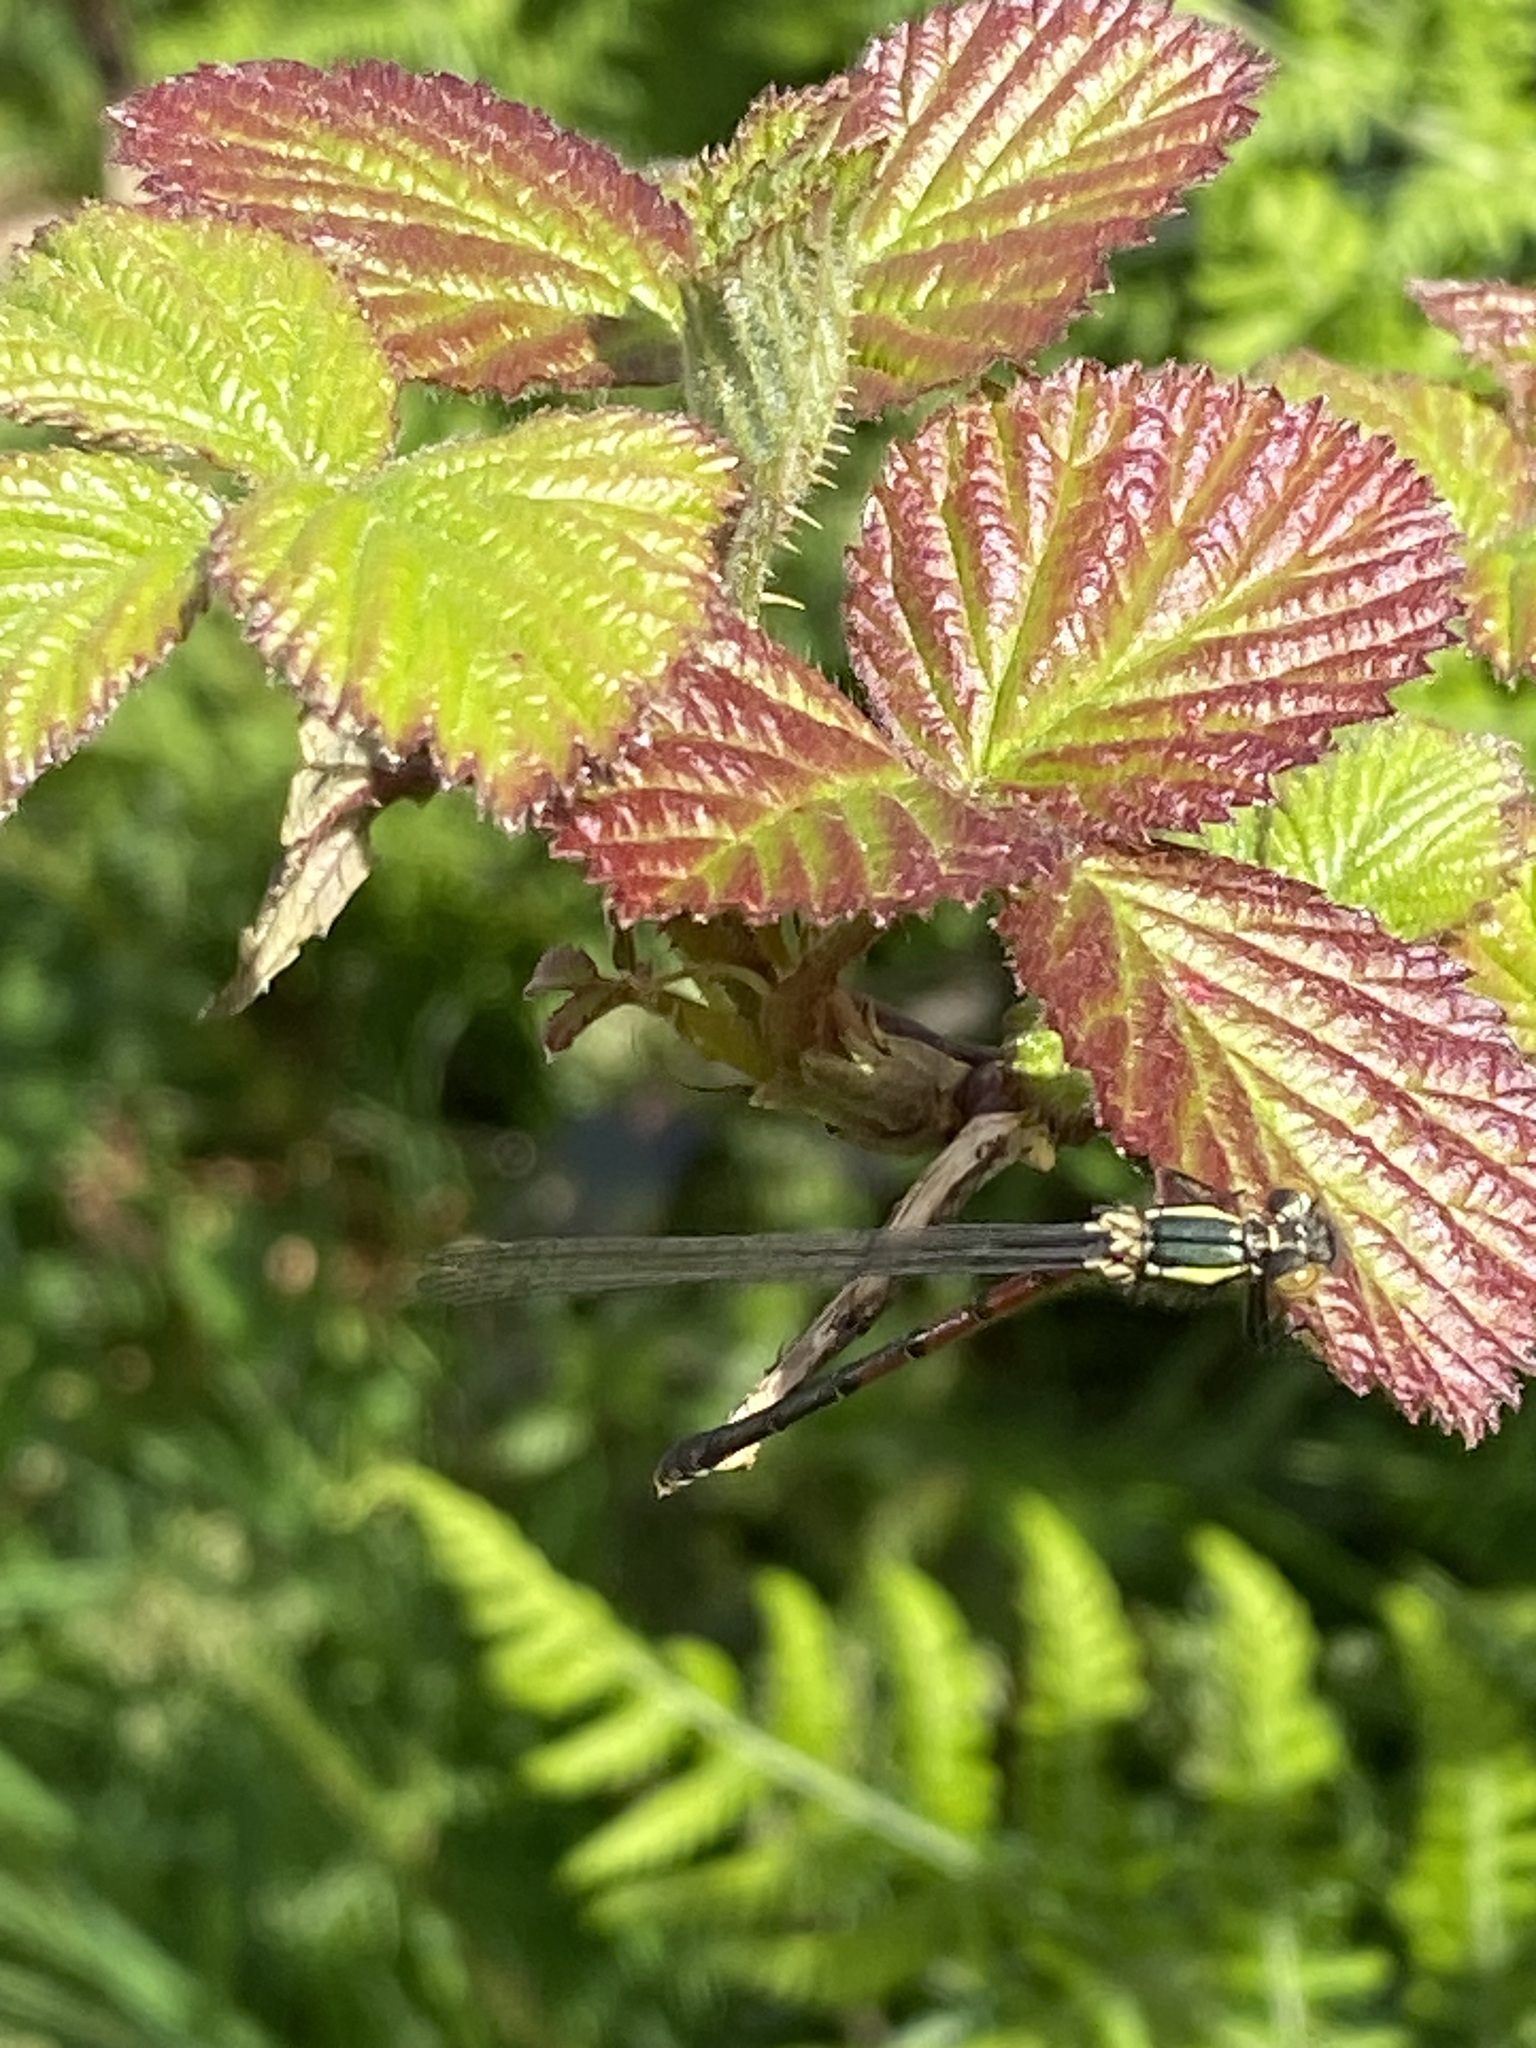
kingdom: Animalia
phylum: Arthropoda
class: Insecta
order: Odonata
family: Coenagrionidae
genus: Pyrrhosoma
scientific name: Pyrrhosoma nymphula
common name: Large red damsel
